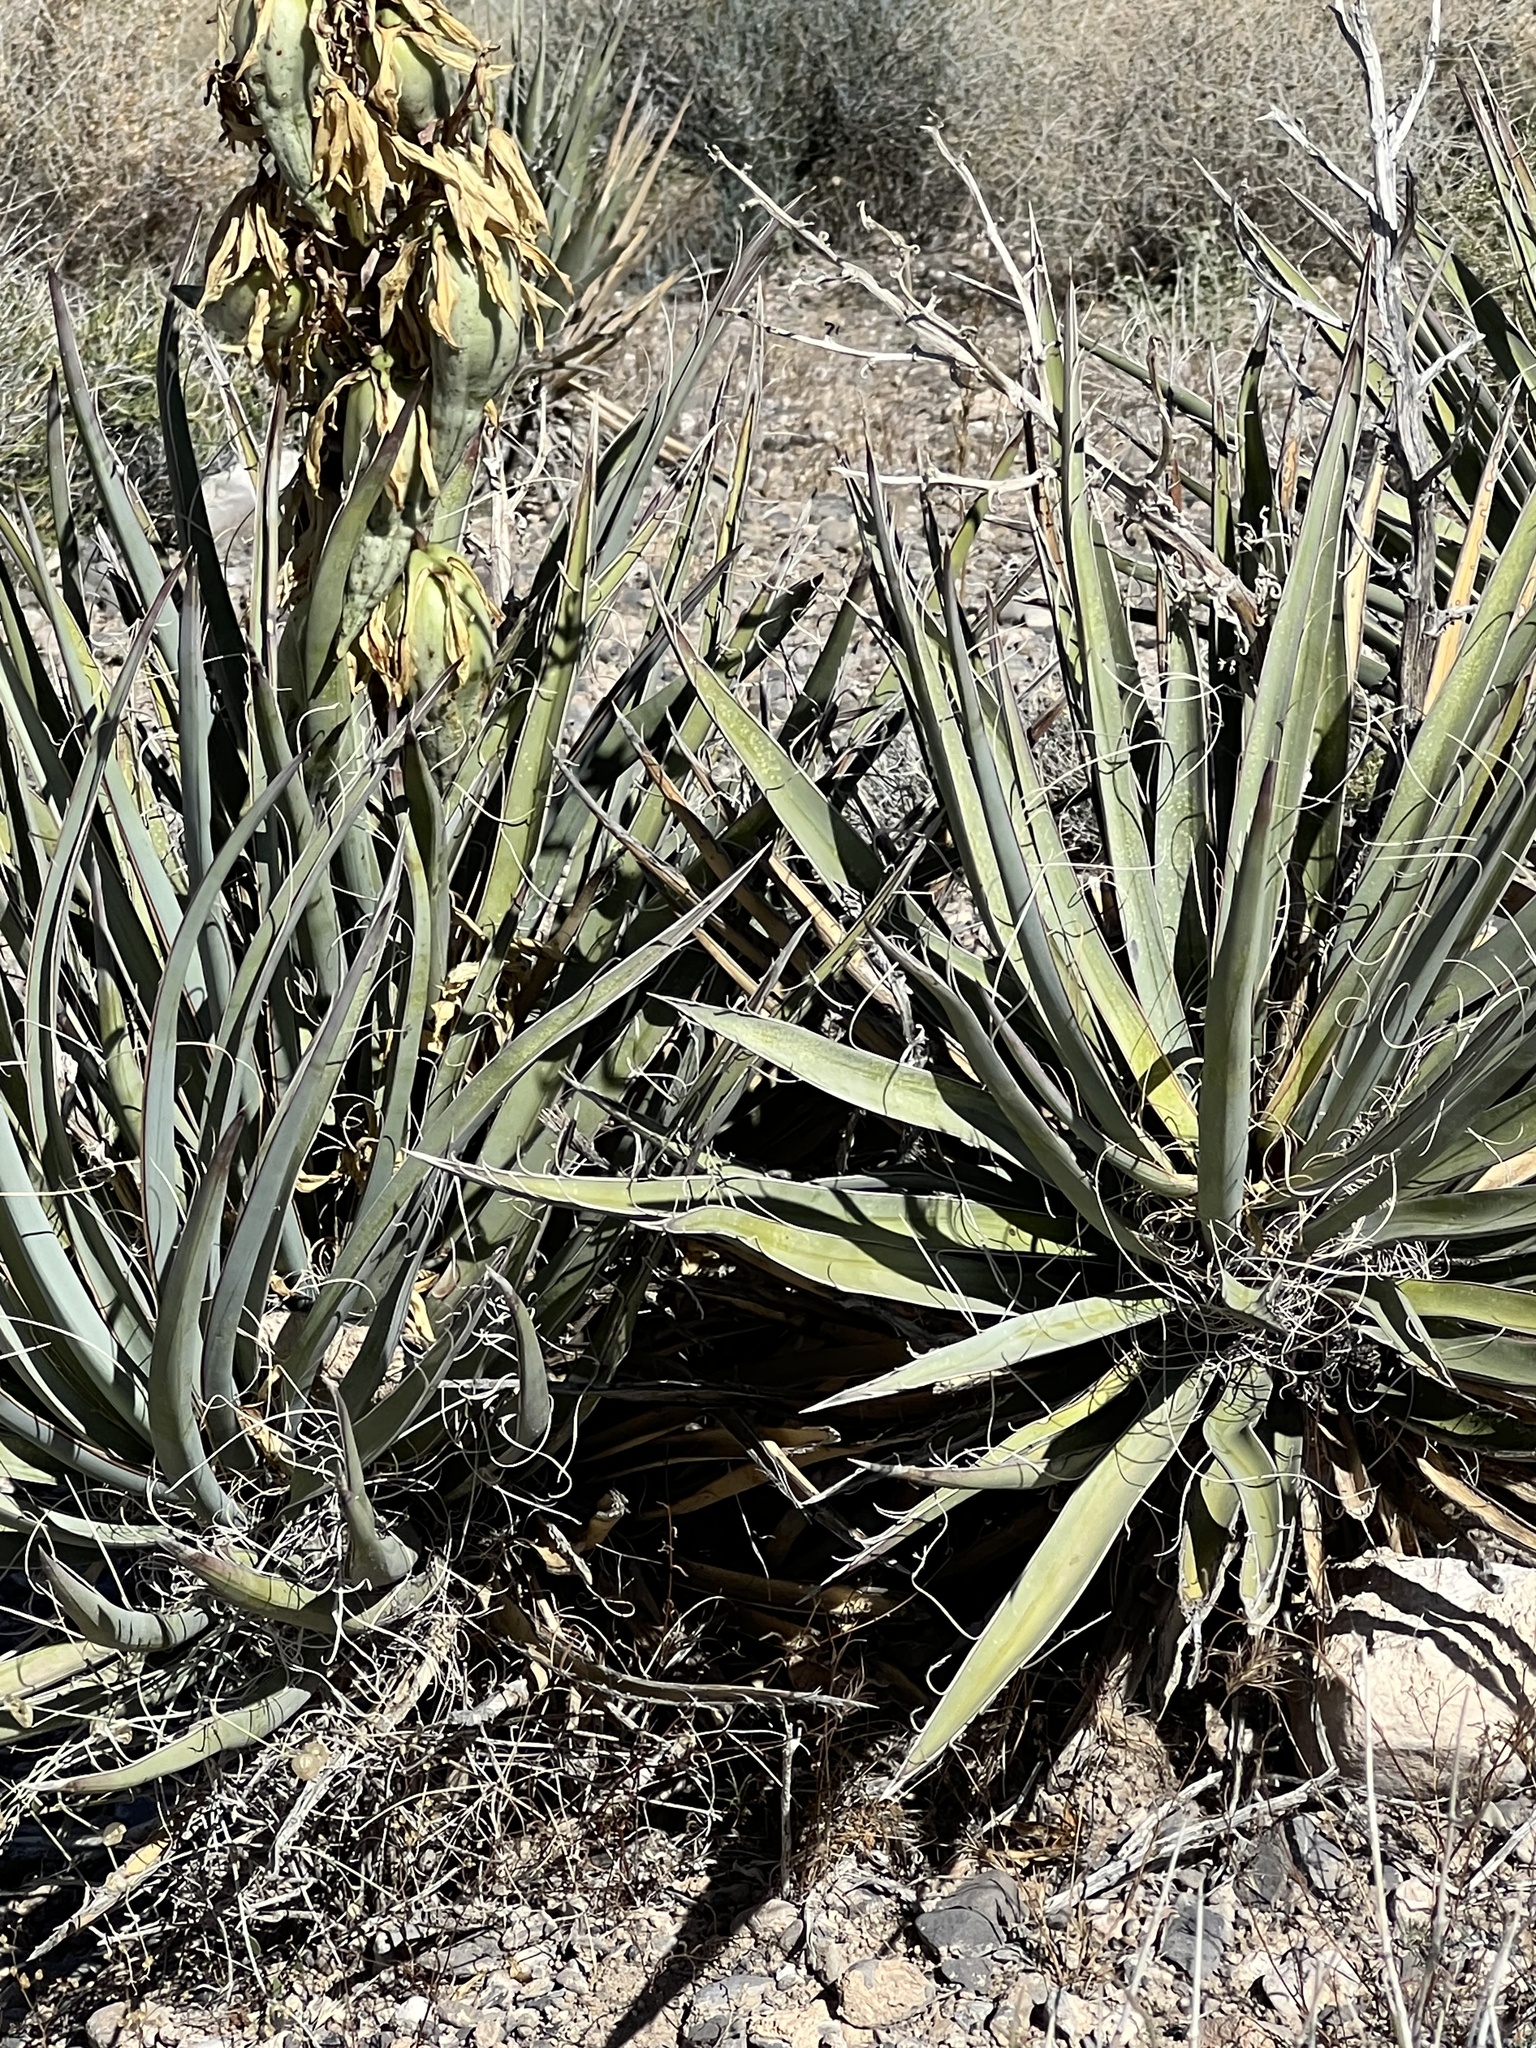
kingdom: Plantae
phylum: Tracheophyta
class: Liliopsida
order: Asparagales
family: Asparagaceae
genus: Yucca
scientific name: Yucca baccata
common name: Banana yucca
